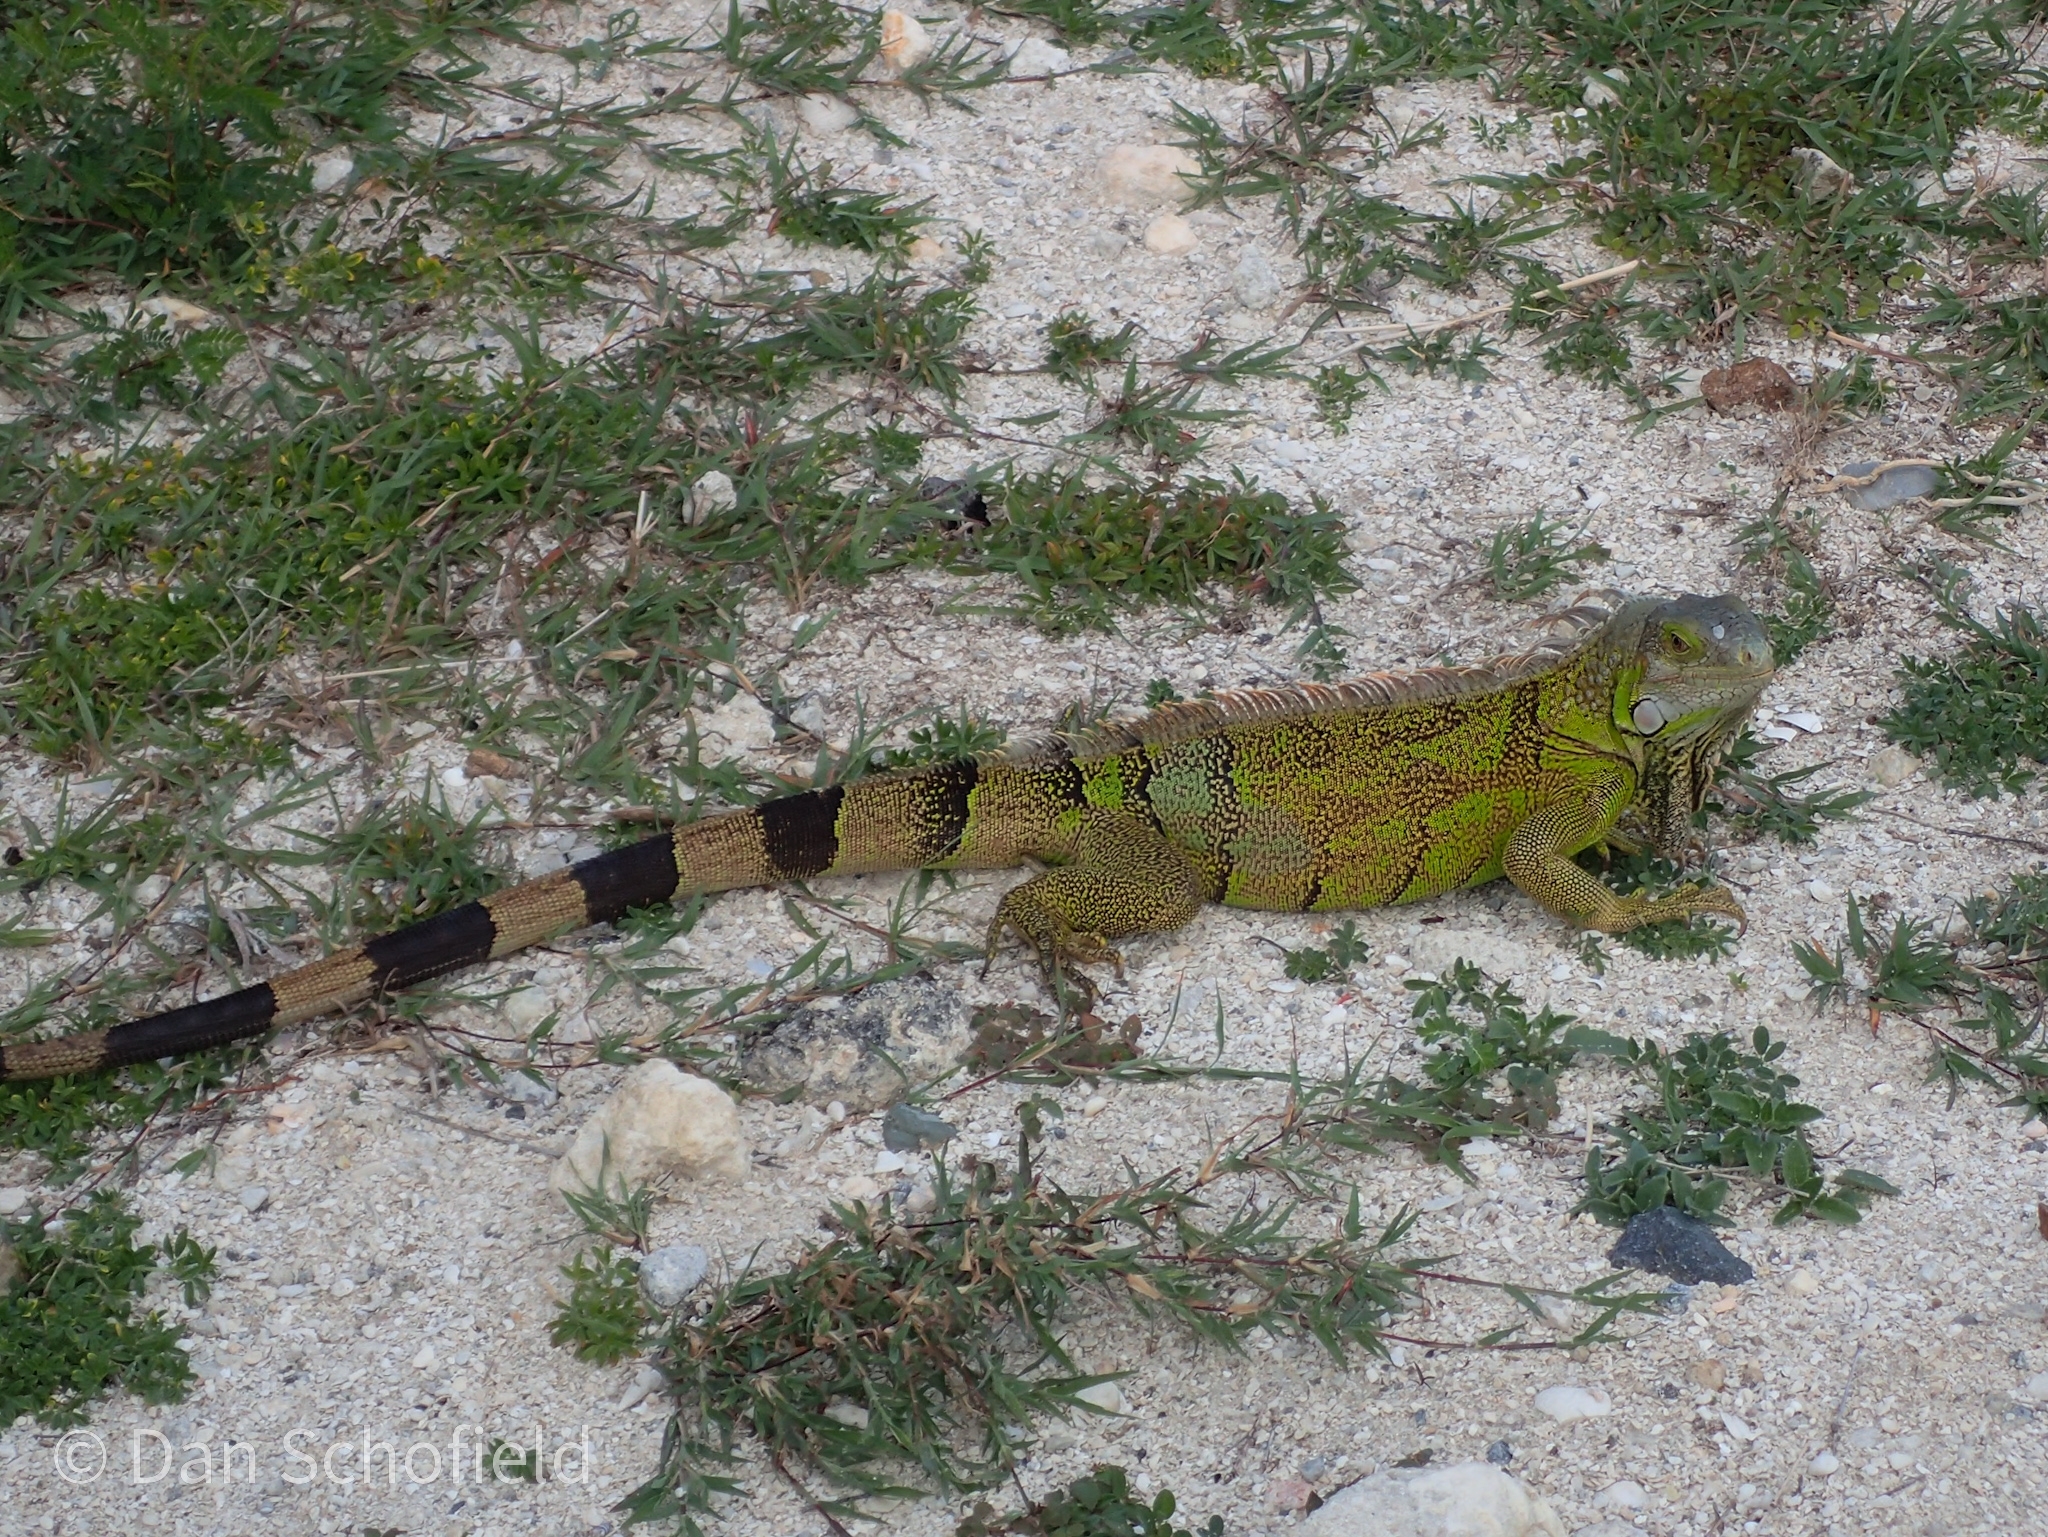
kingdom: Animalia
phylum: Chordata
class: Squamata
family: Iguanidae
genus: Iguana
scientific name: Iguana iguana
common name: Green iguana
